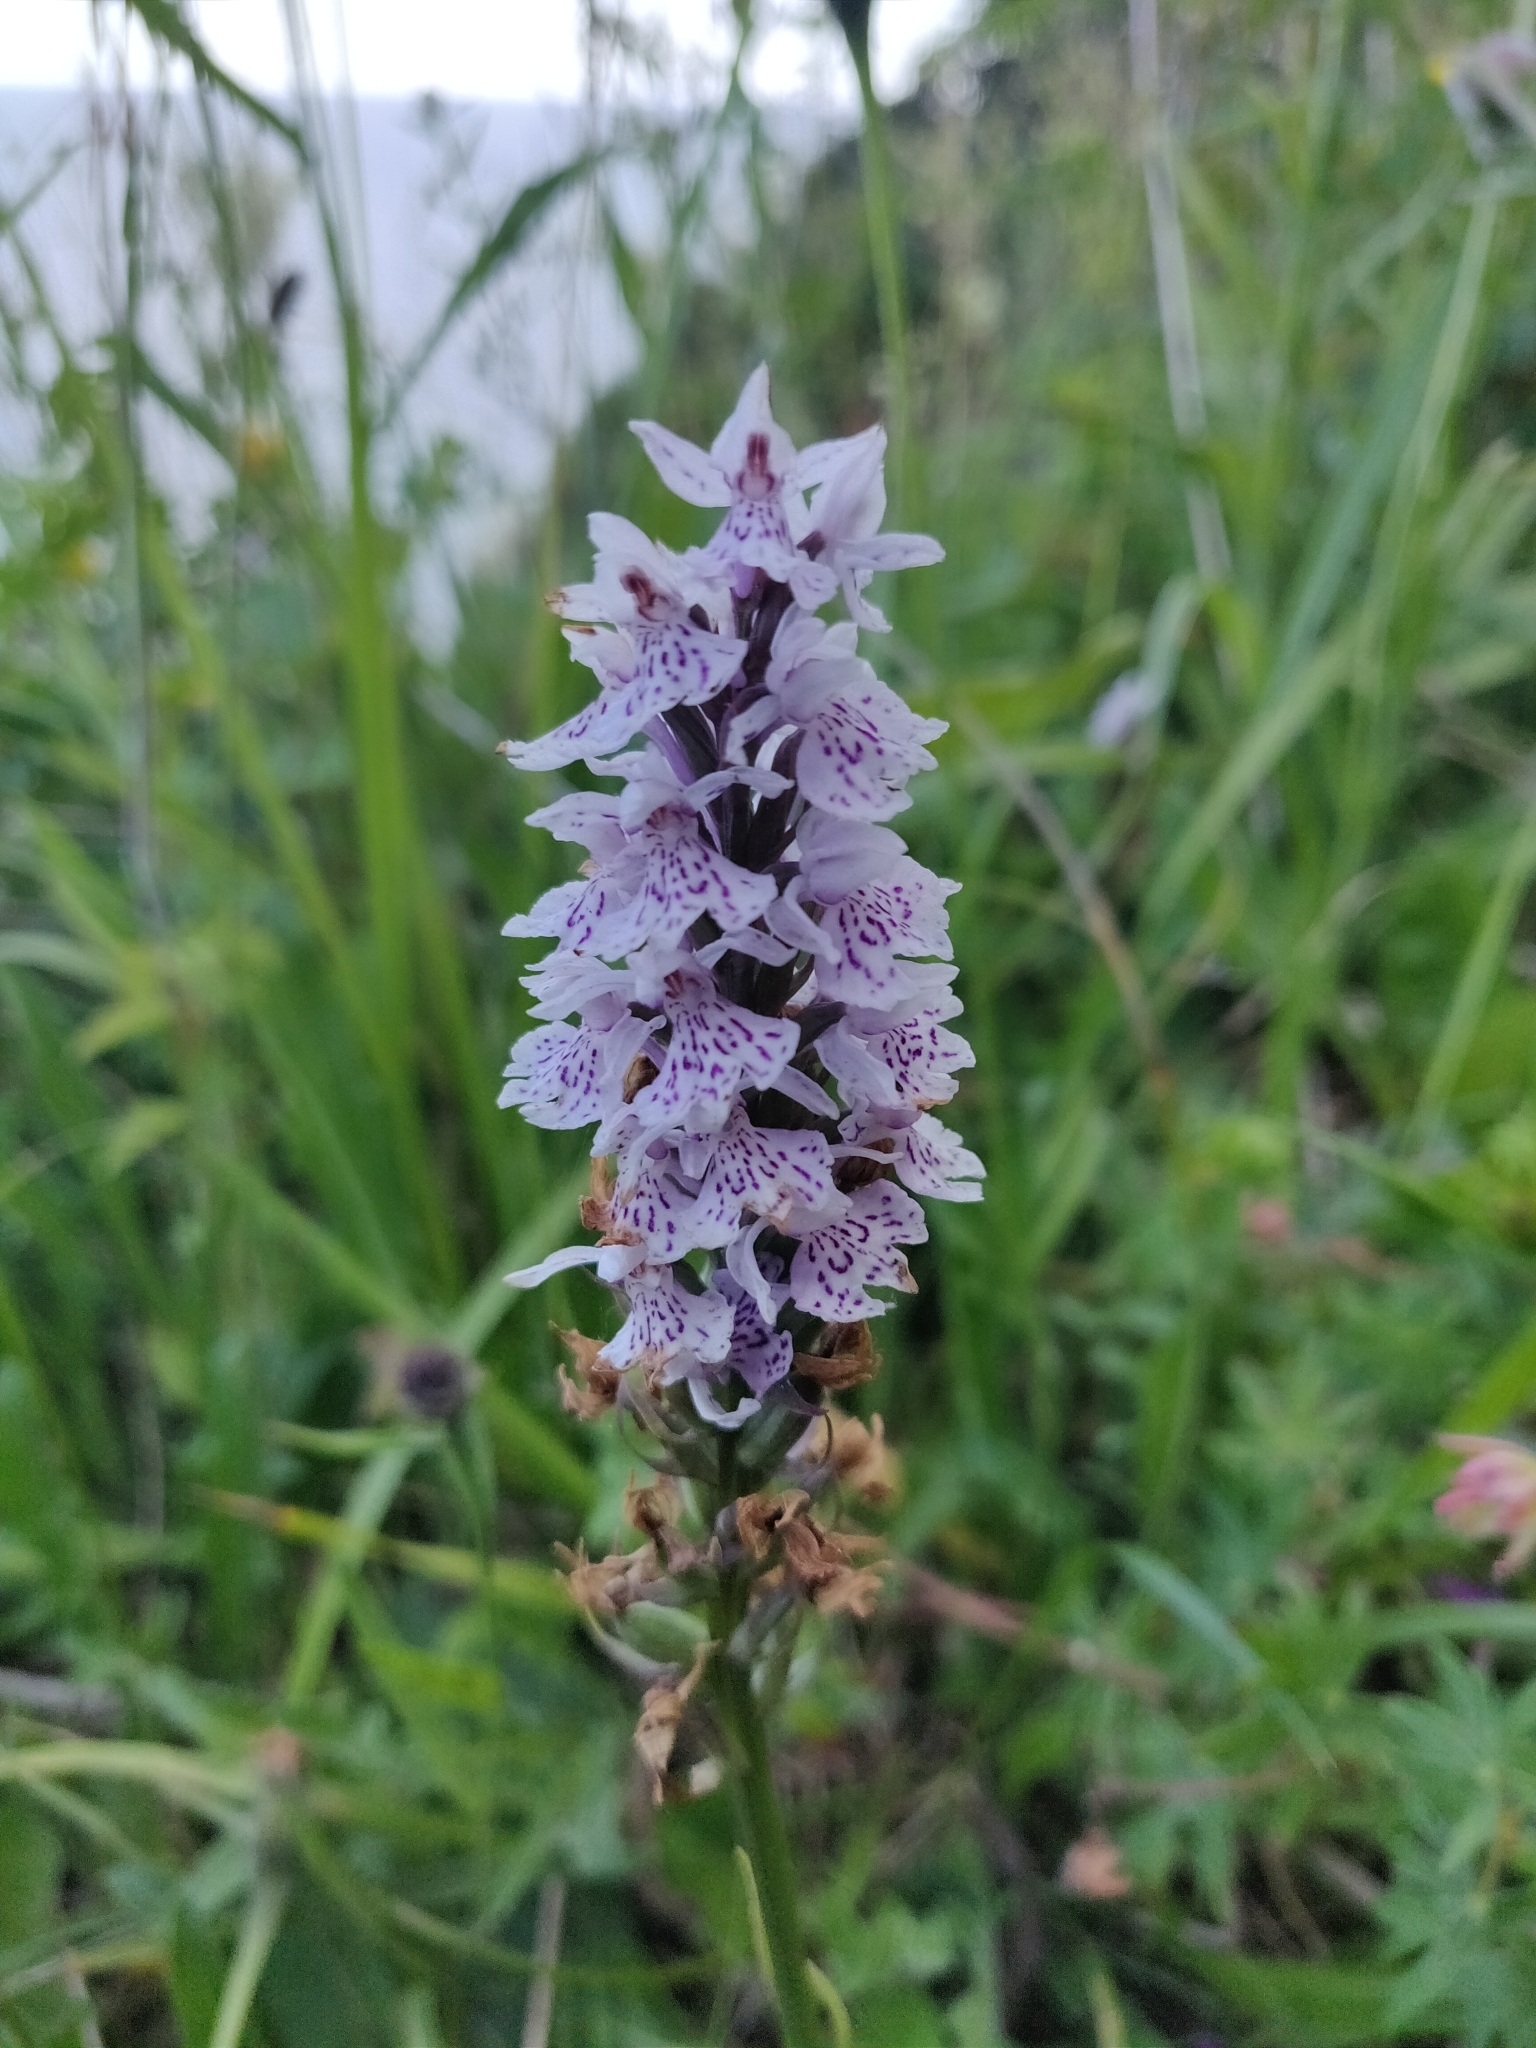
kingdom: Plantae
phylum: Tracheophyta
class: Liliopsida
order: Asparagales
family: Orchidaceae
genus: Dactylorhiza
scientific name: Dactylorhiza maculata
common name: Heath spotted-orchid
